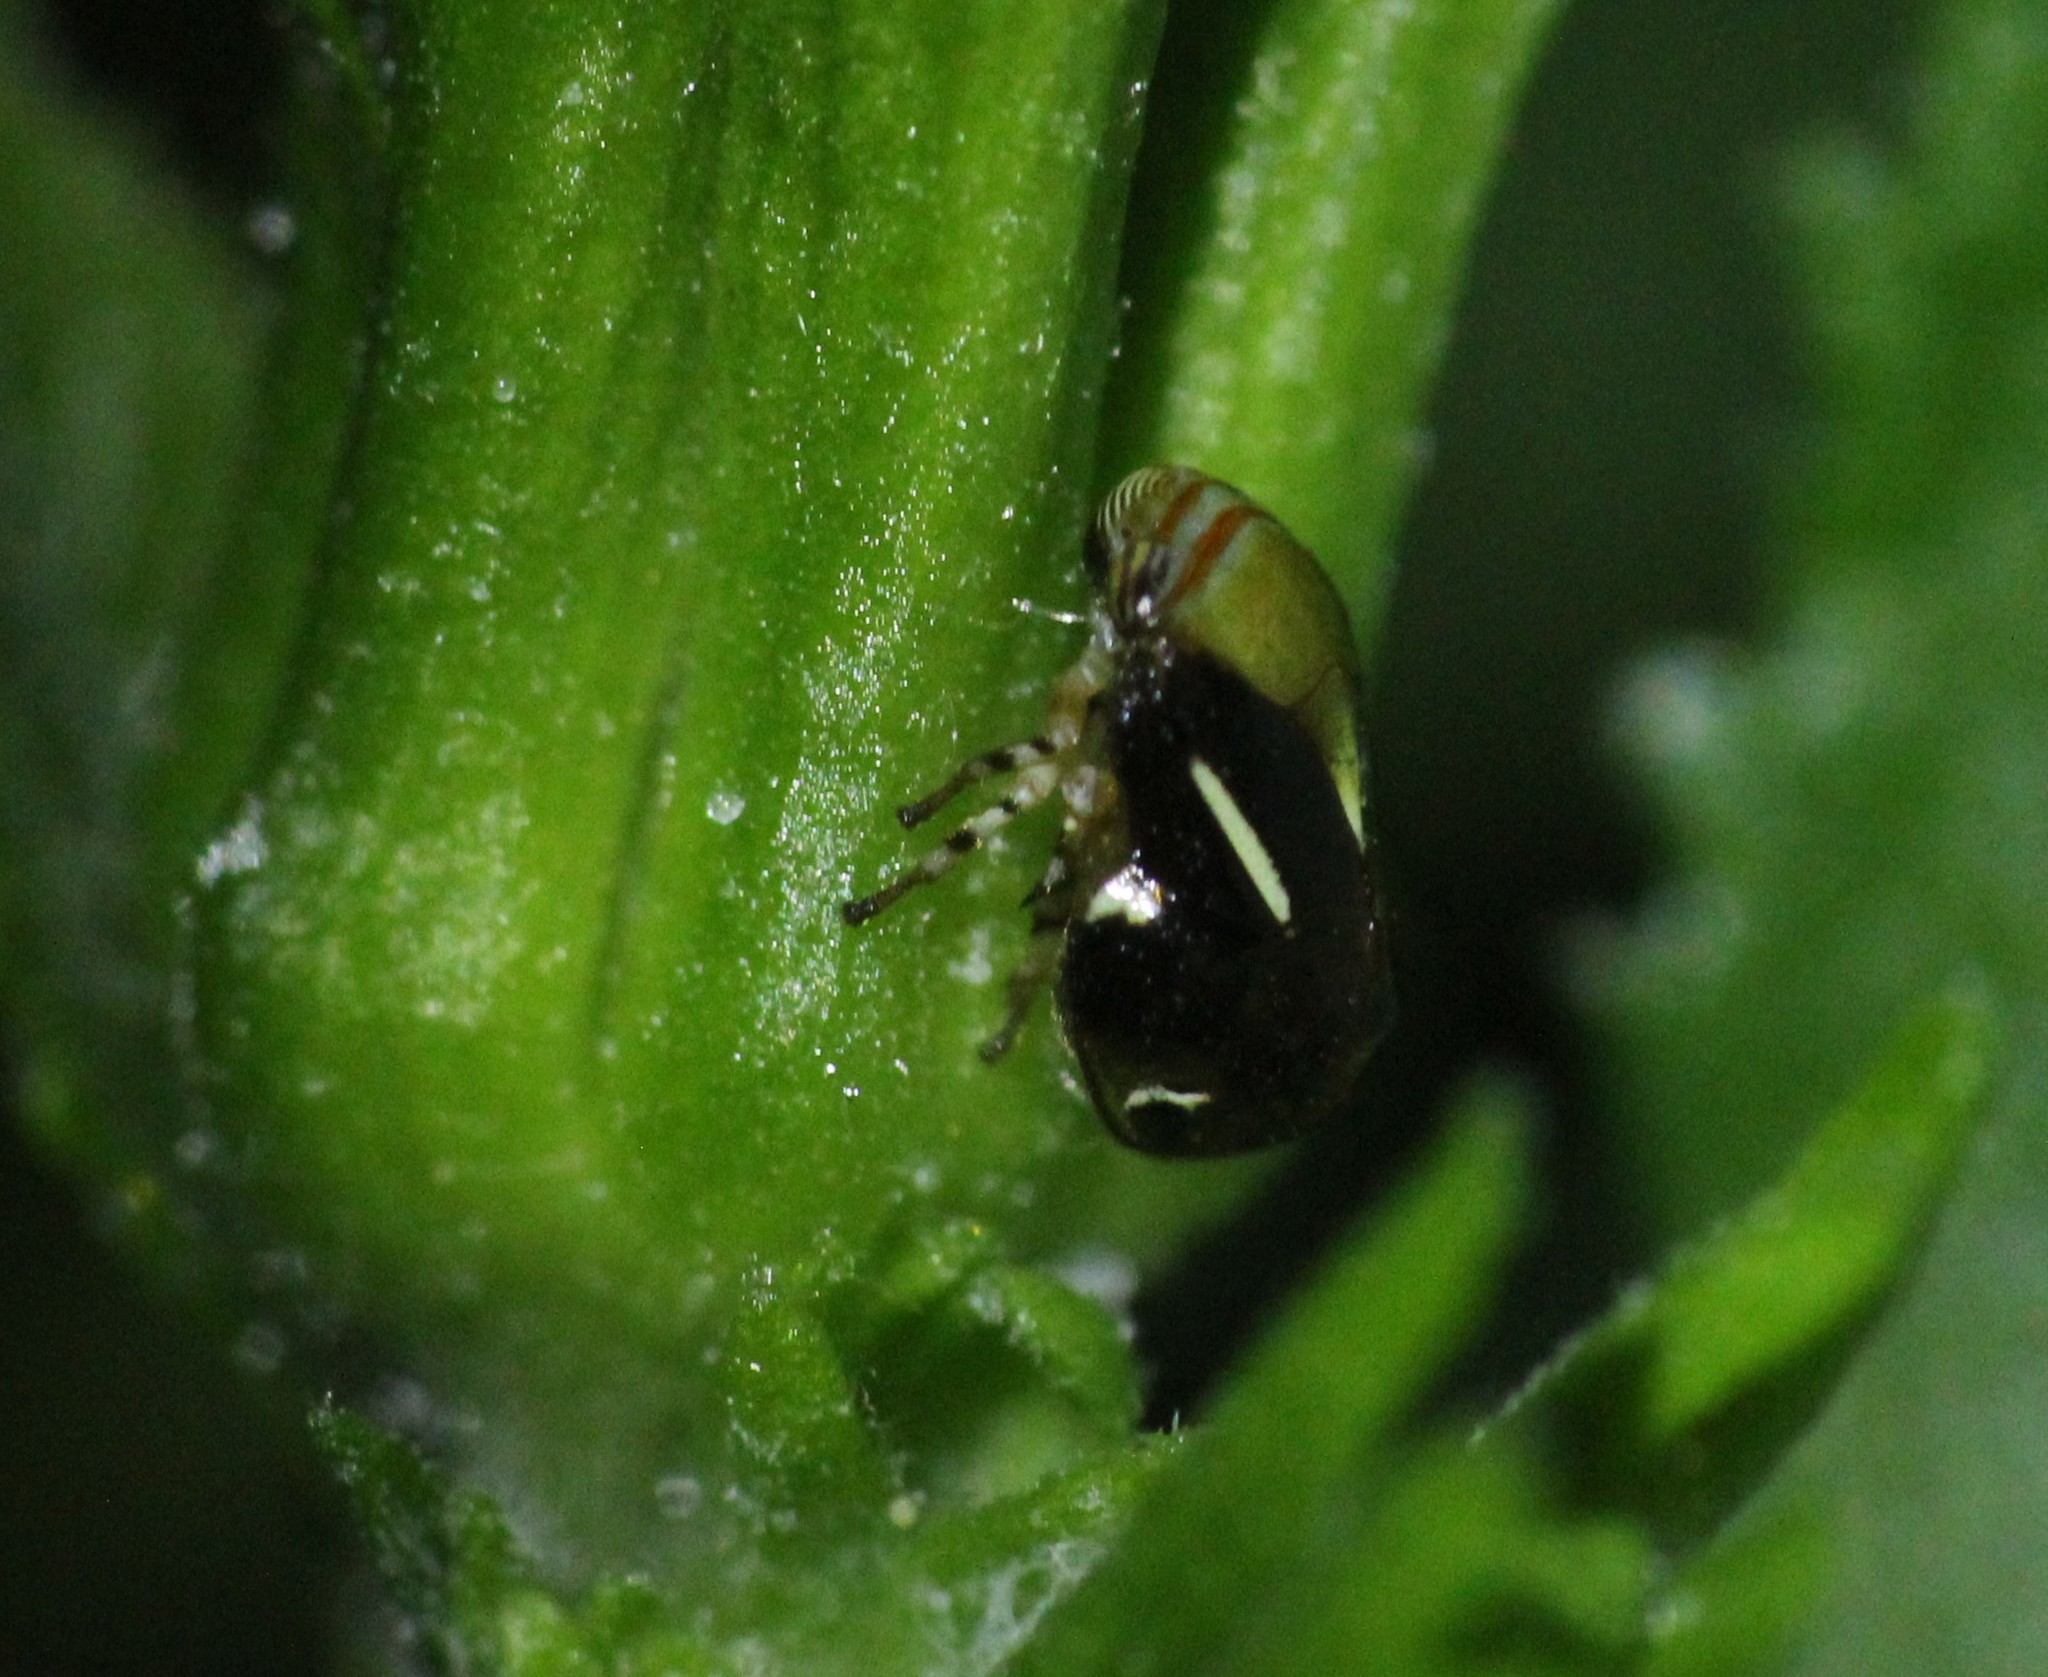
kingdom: Animalia
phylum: Arthropoda
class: Insecta
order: Hemiptera
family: Clastopteridae
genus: Clastoptera
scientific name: Clastoptera cimicoides
